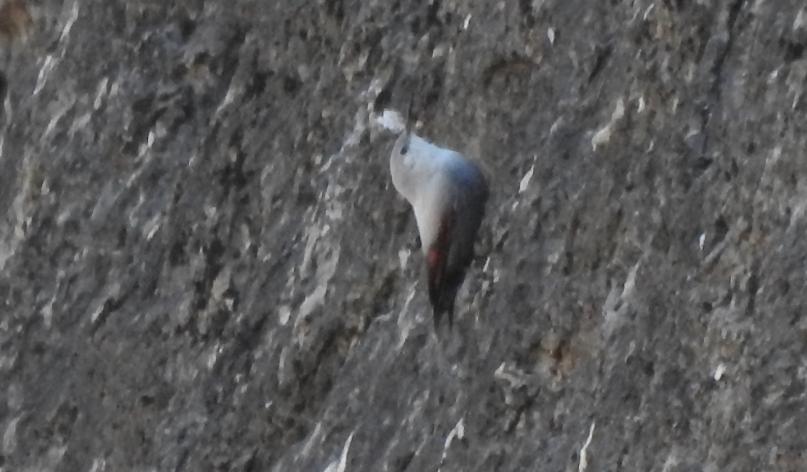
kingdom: Animalia
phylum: Chordata
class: Aves
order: Passeriformes
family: Tichodromidae
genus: Tichodroma
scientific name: Tichodroma muraria
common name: Wallcreeper
